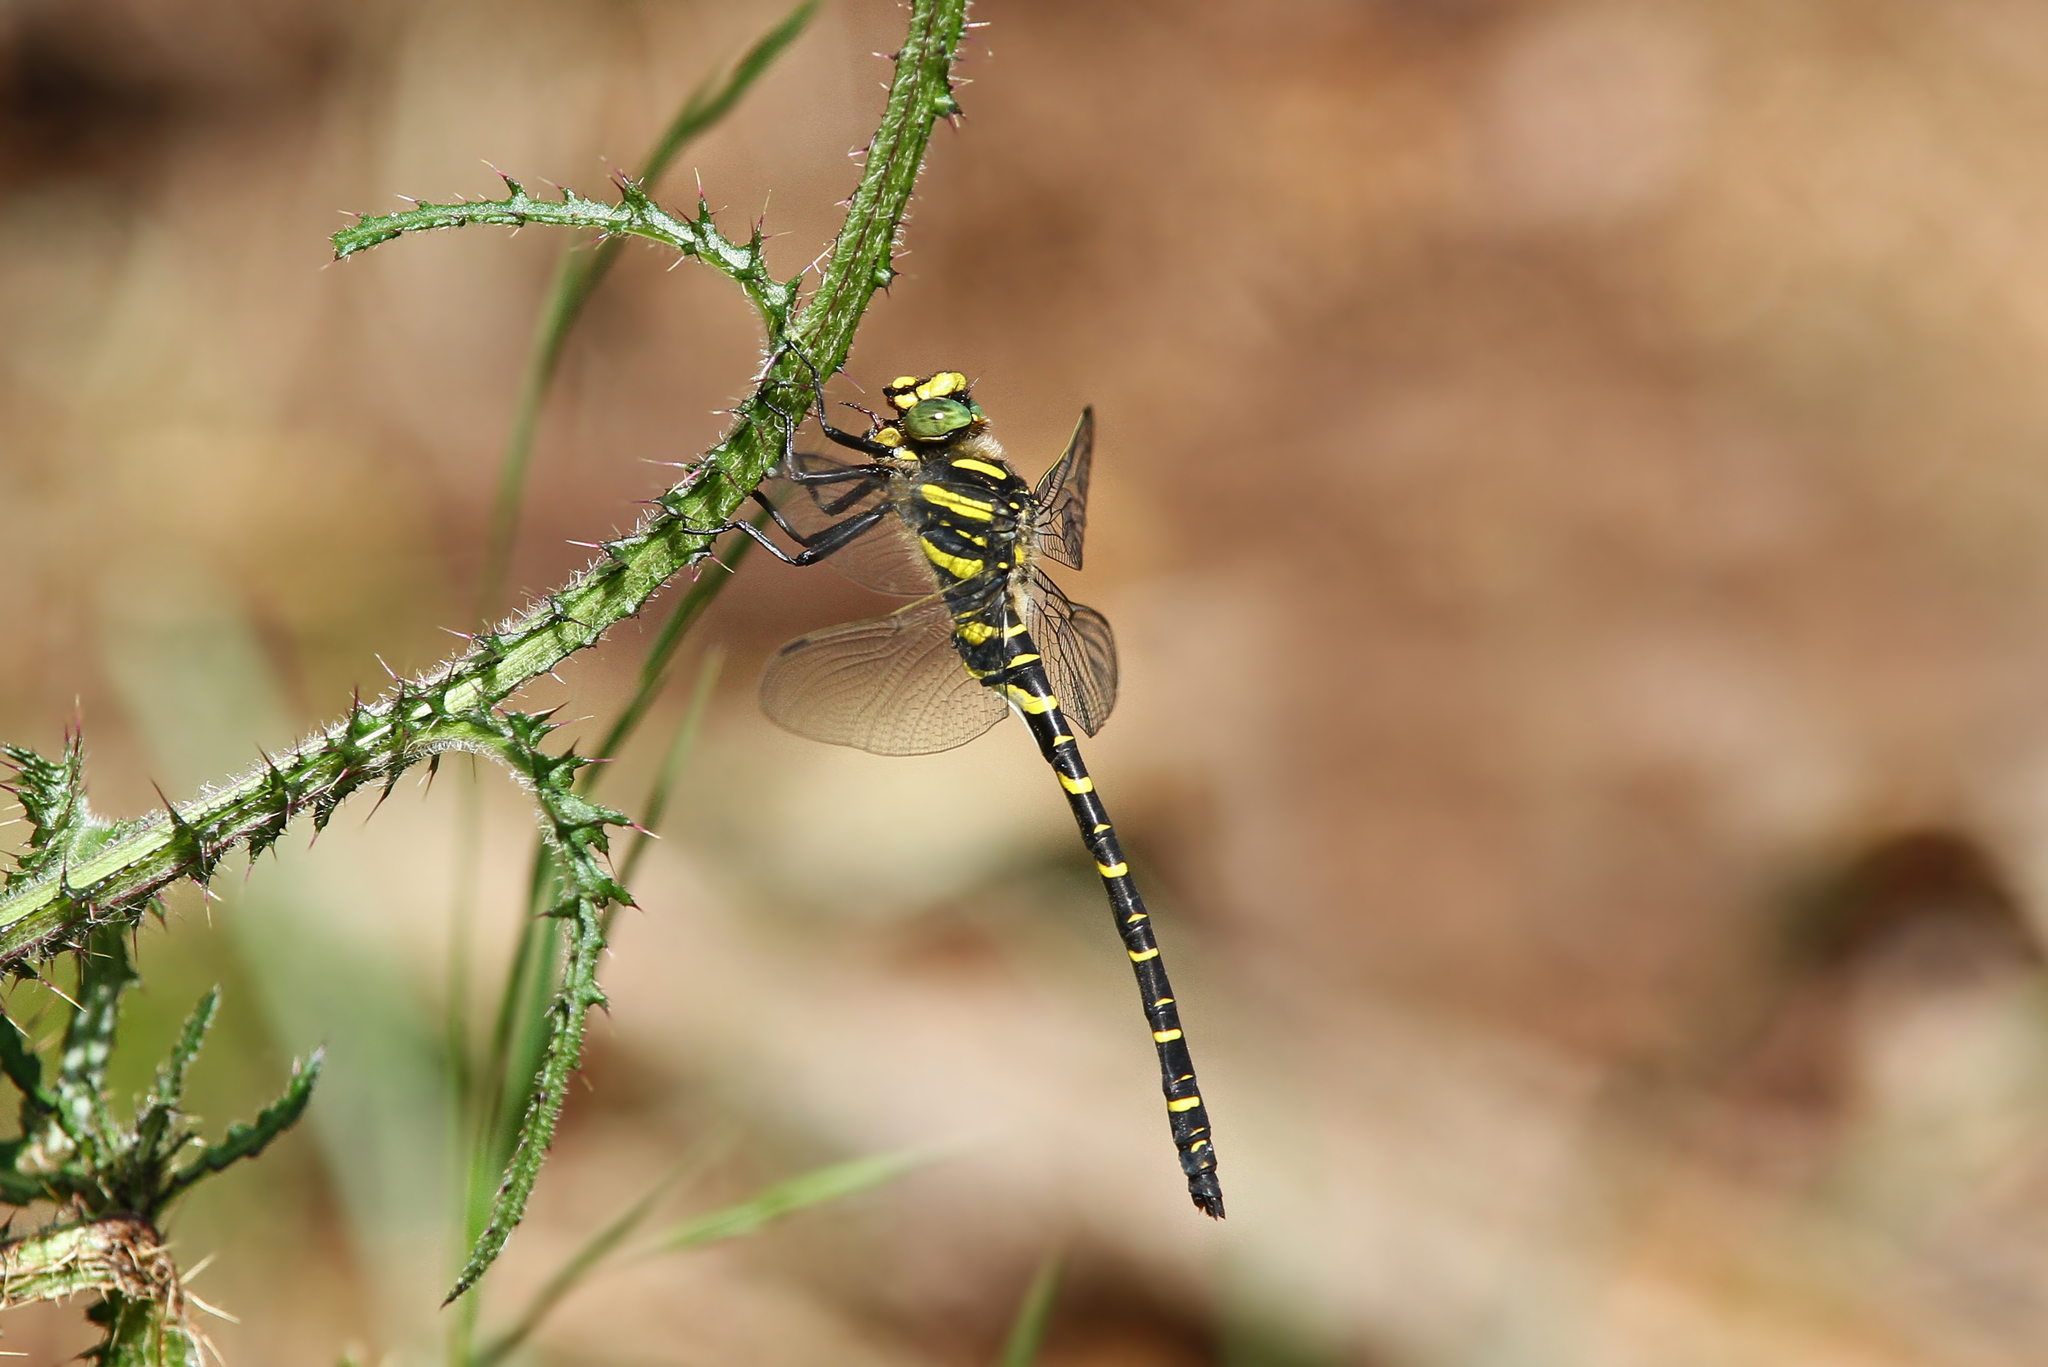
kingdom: Animalia
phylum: Arthropoda
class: Insecta
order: Odonata
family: Cordulegastridae
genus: Cordulegaster
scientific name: Cordulegaster boltonii
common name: Golden-ringed dragonfly
